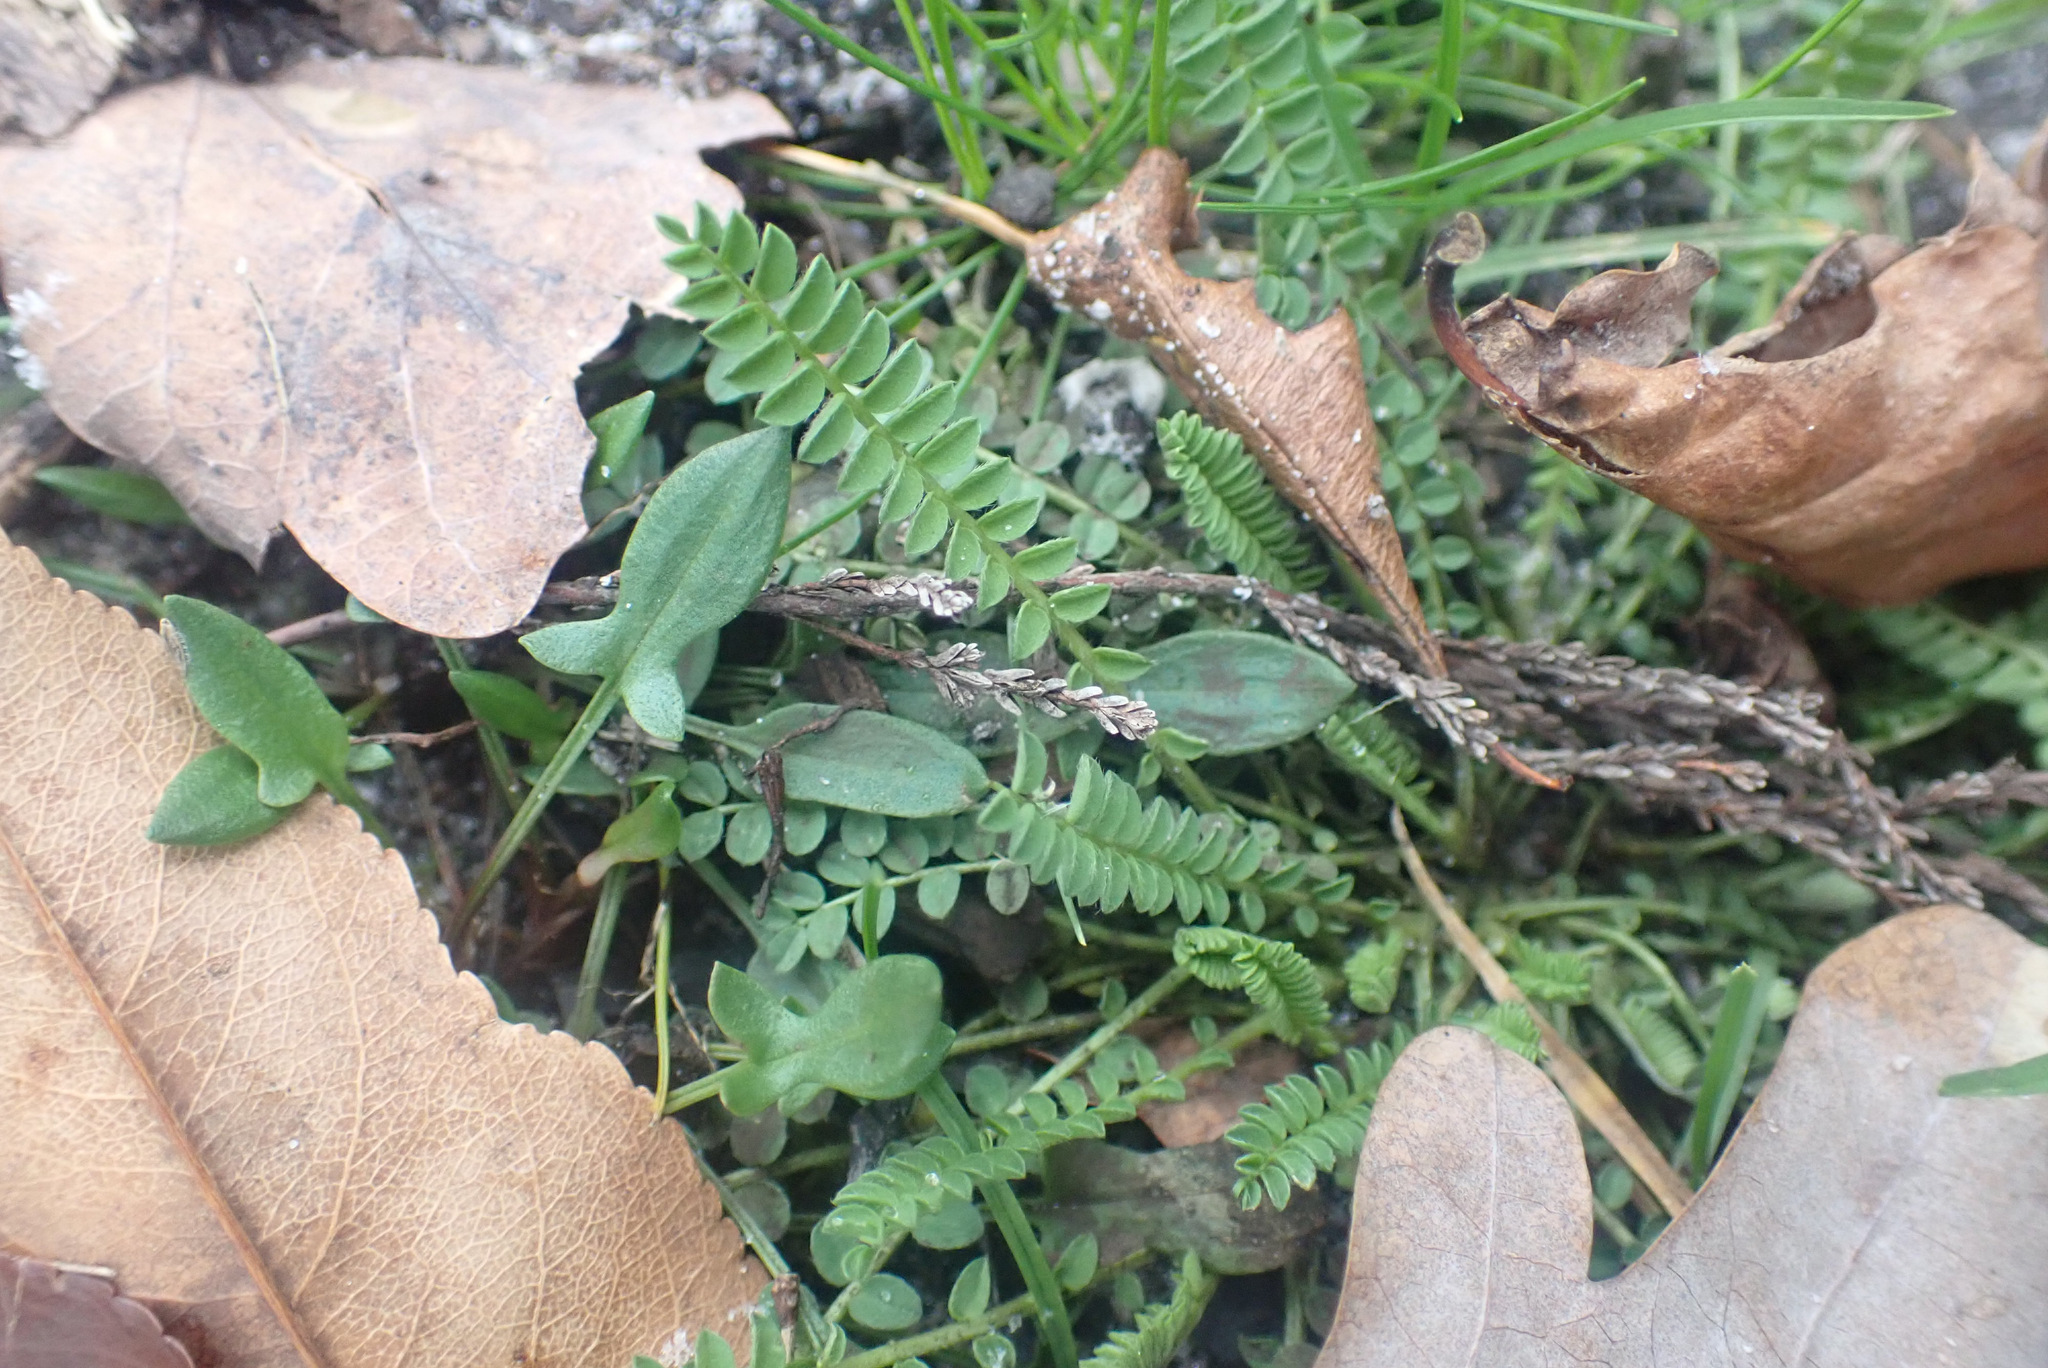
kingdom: Plantae
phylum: Tracheophyta
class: Magnoliopsida
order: Fabales
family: Fabaceae
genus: Ornithopus
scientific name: Ornithopus perpusillus
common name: Bird's-foot
